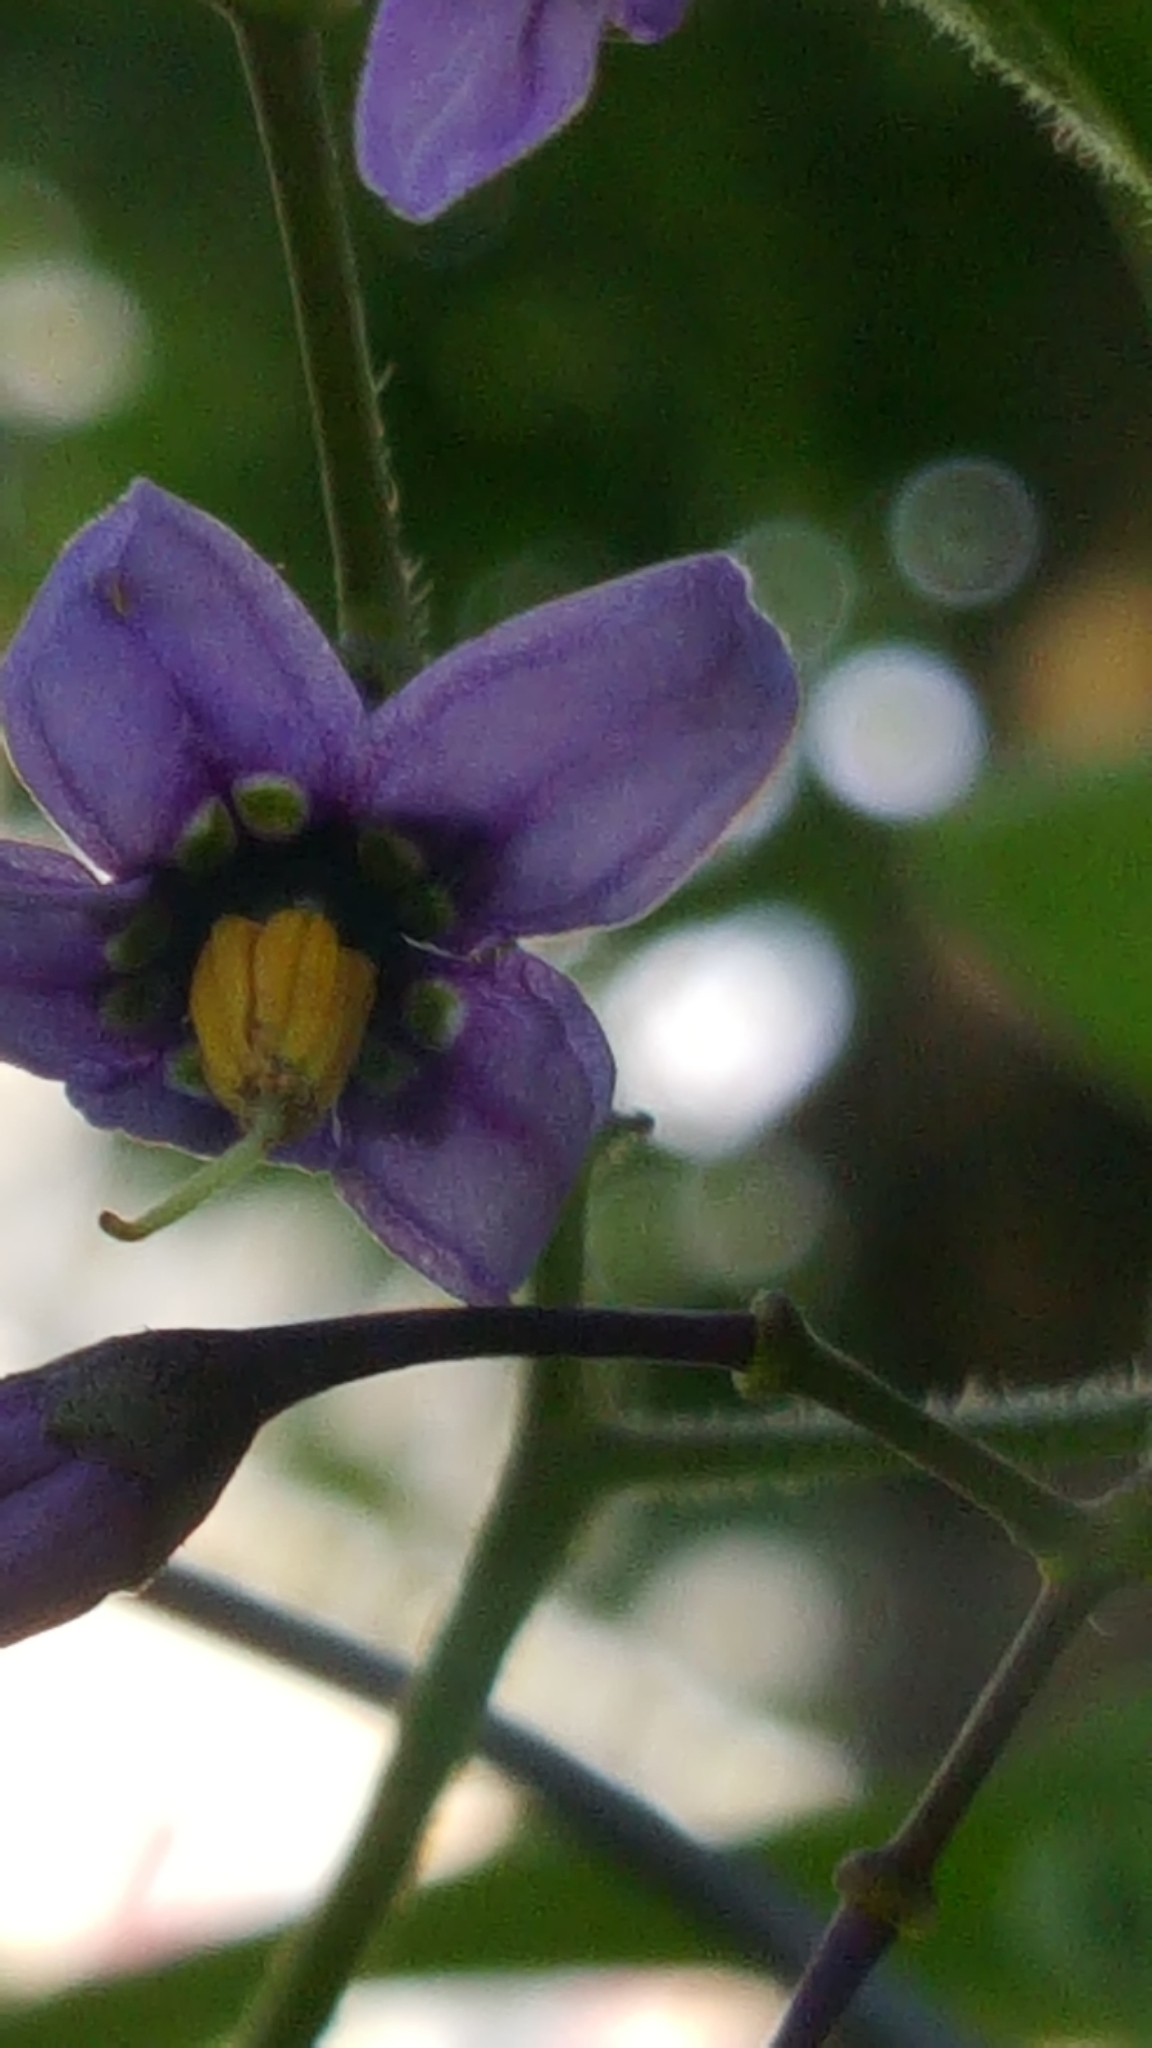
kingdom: Plantae
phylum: Tracheophyta
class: Magnoliopsida
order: Solanales
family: Solanaceae
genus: Solanum
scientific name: Solanum dulcamara
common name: Climbing nightshade
